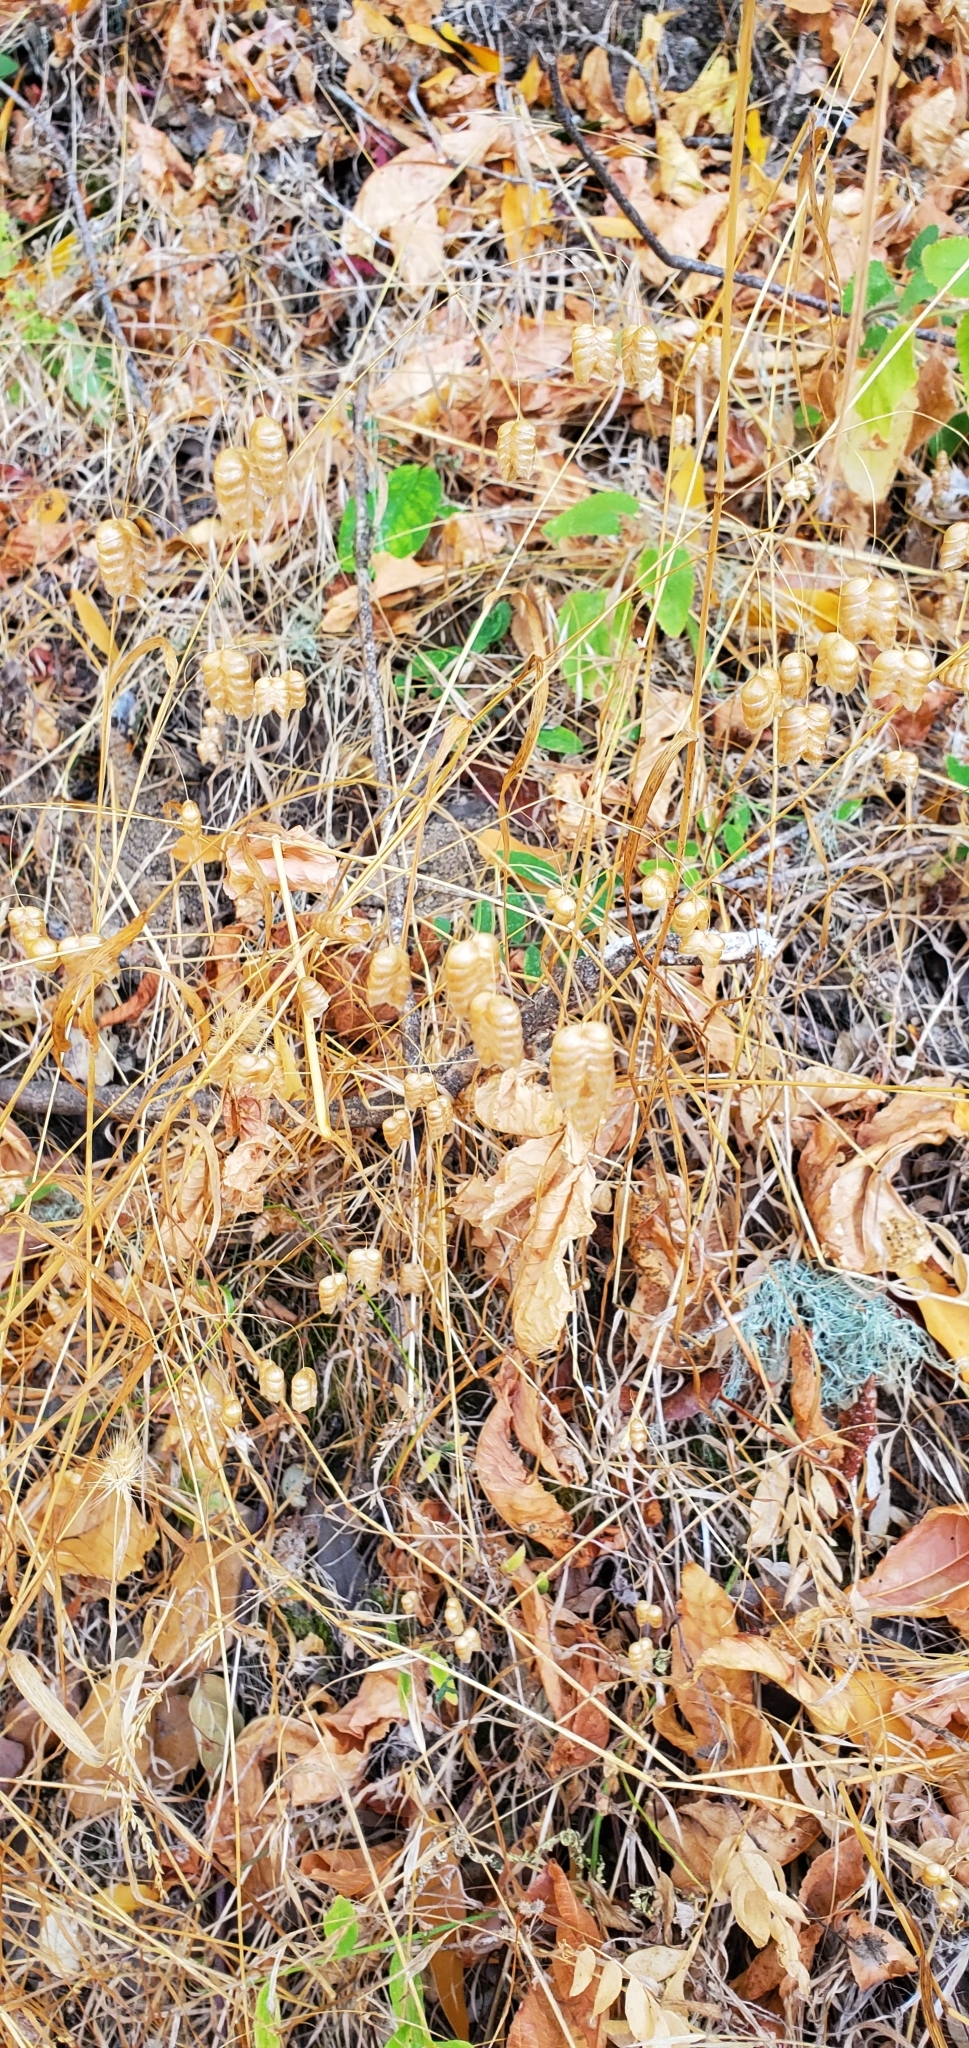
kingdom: Plantae
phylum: Tracheophyta
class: Liliopsida
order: Poales
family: Poaceae
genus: Briza
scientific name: Briza maxima
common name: Big quakinggrass
